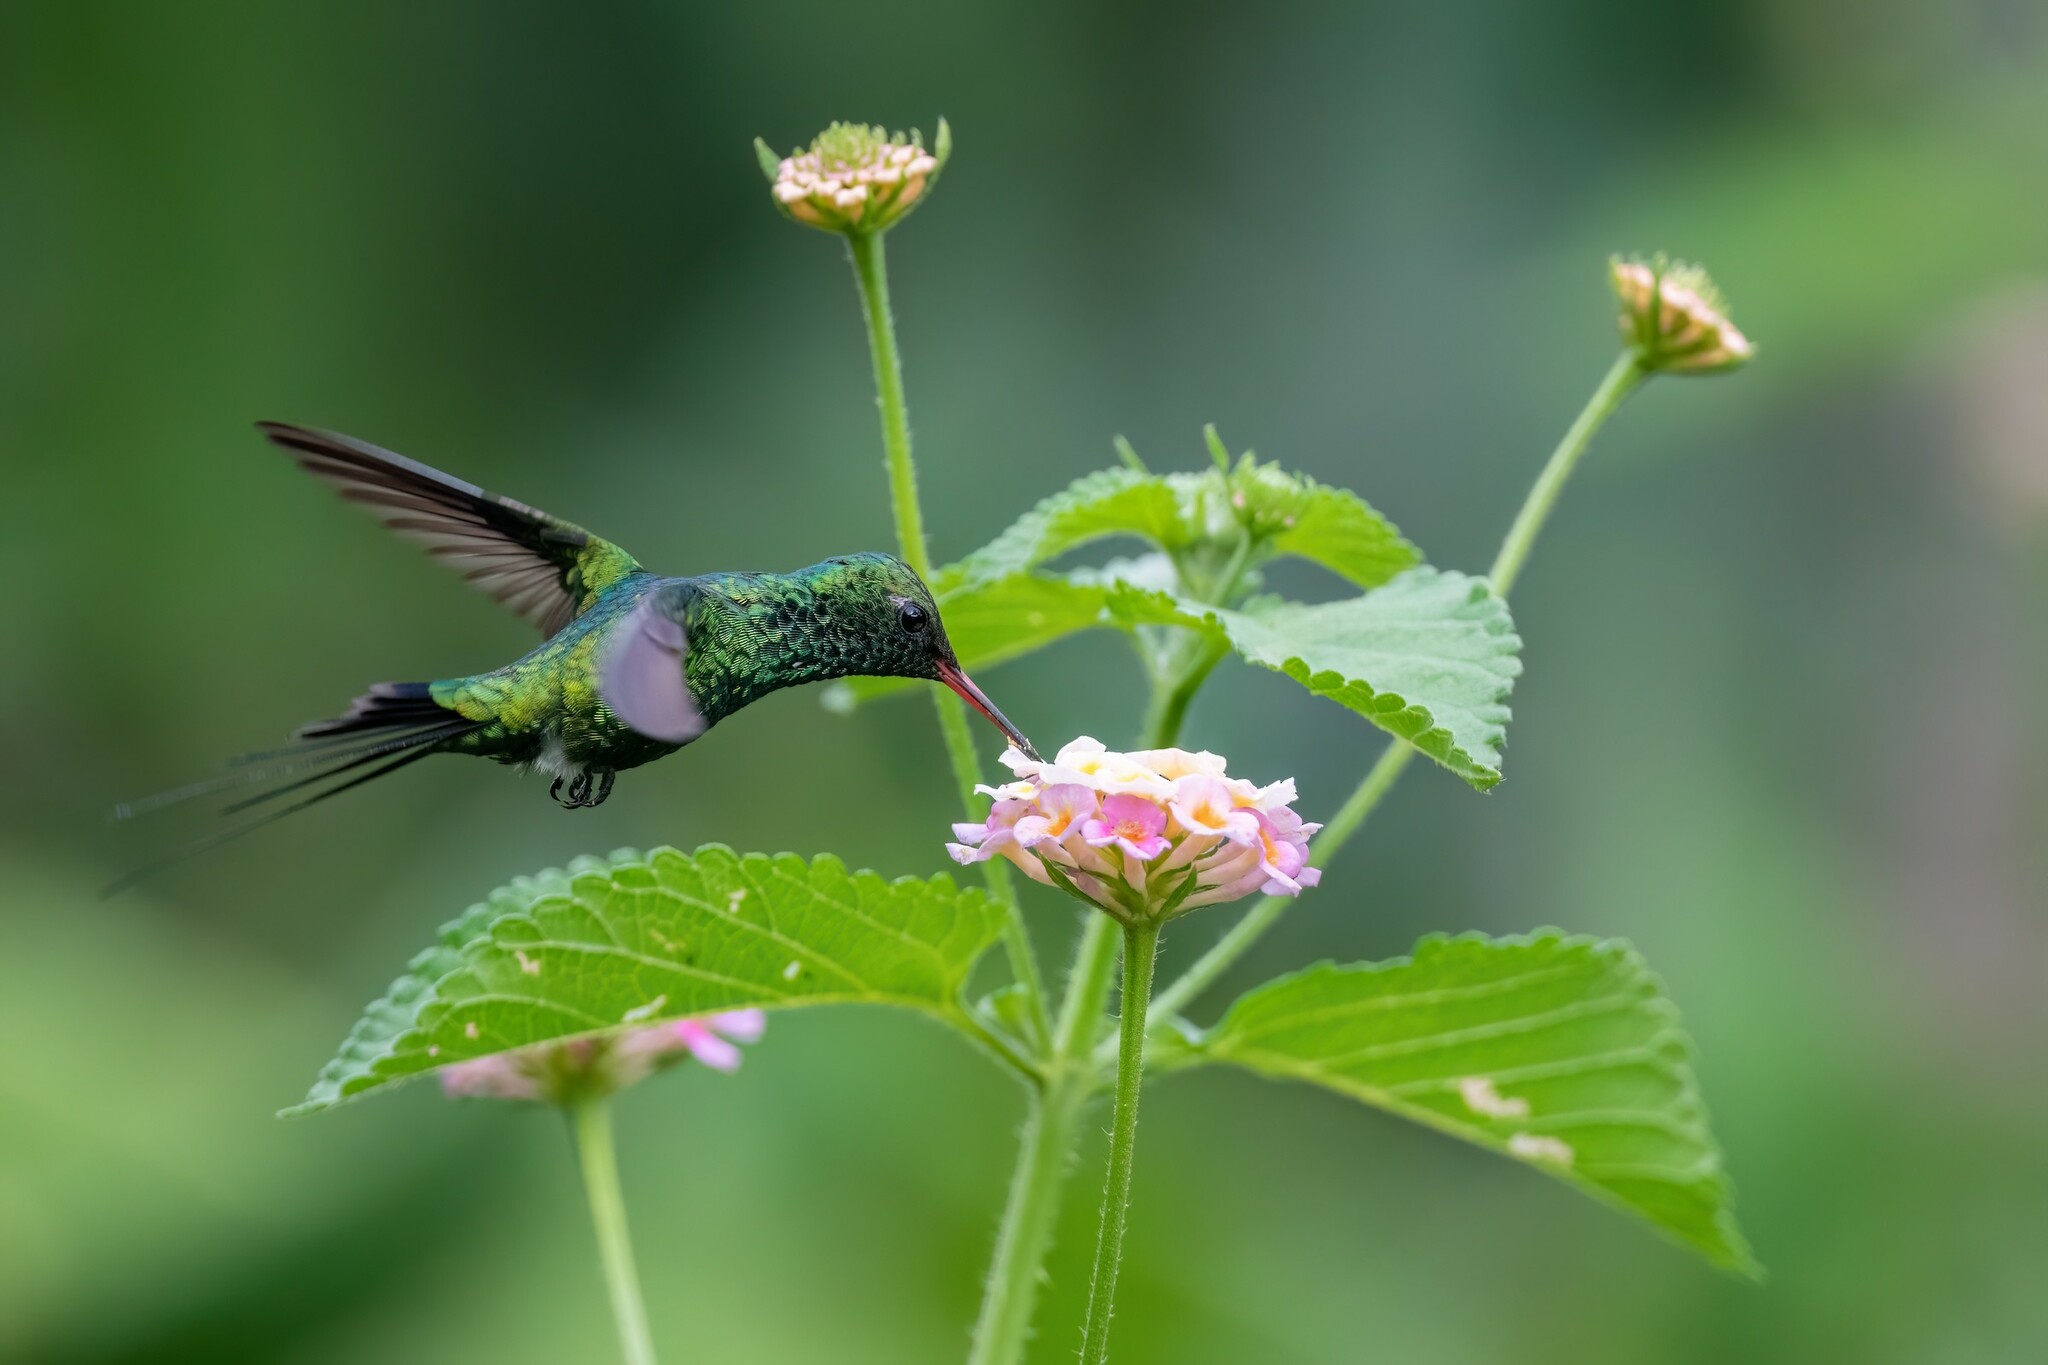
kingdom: Animalia
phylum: Chordata
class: Aves
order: Apodiformes
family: Trochilidae
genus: Cynanthus
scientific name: Cynanthus auriceps
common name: Golden-crowned emerald
